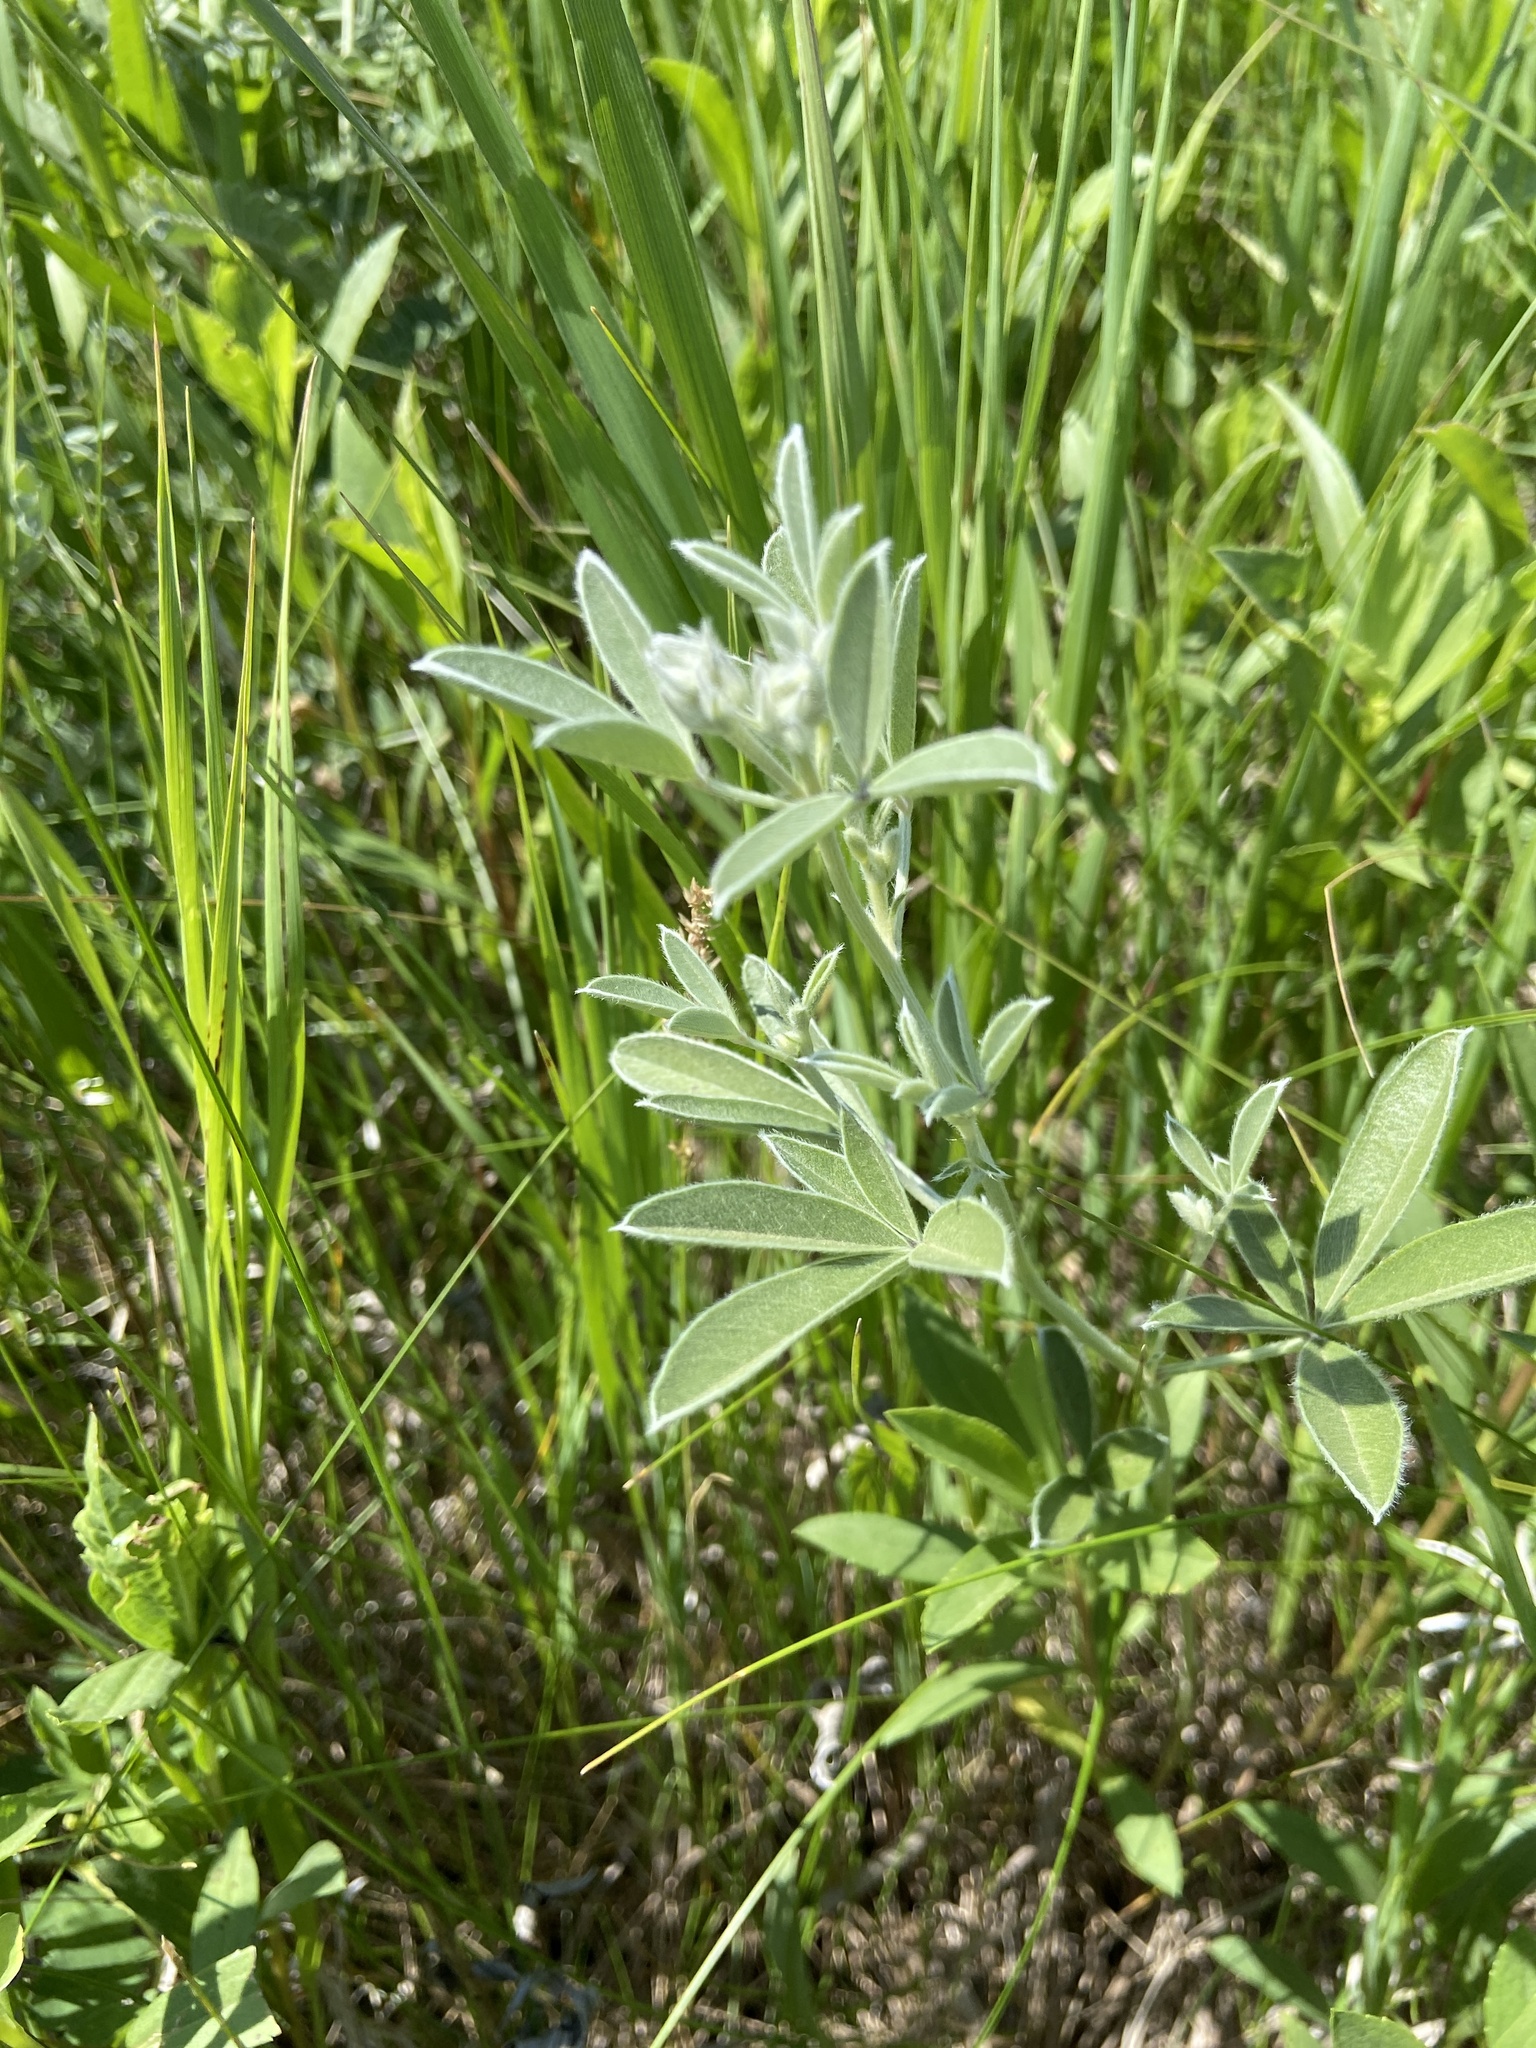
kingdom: Plantae
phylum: Tracheophyta
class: Magnoliopsida
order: Fabales
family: Fabaceae
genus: Pediomelum
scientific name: Pediomelum argophyllum
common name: Silver-leaved indian breadroot
